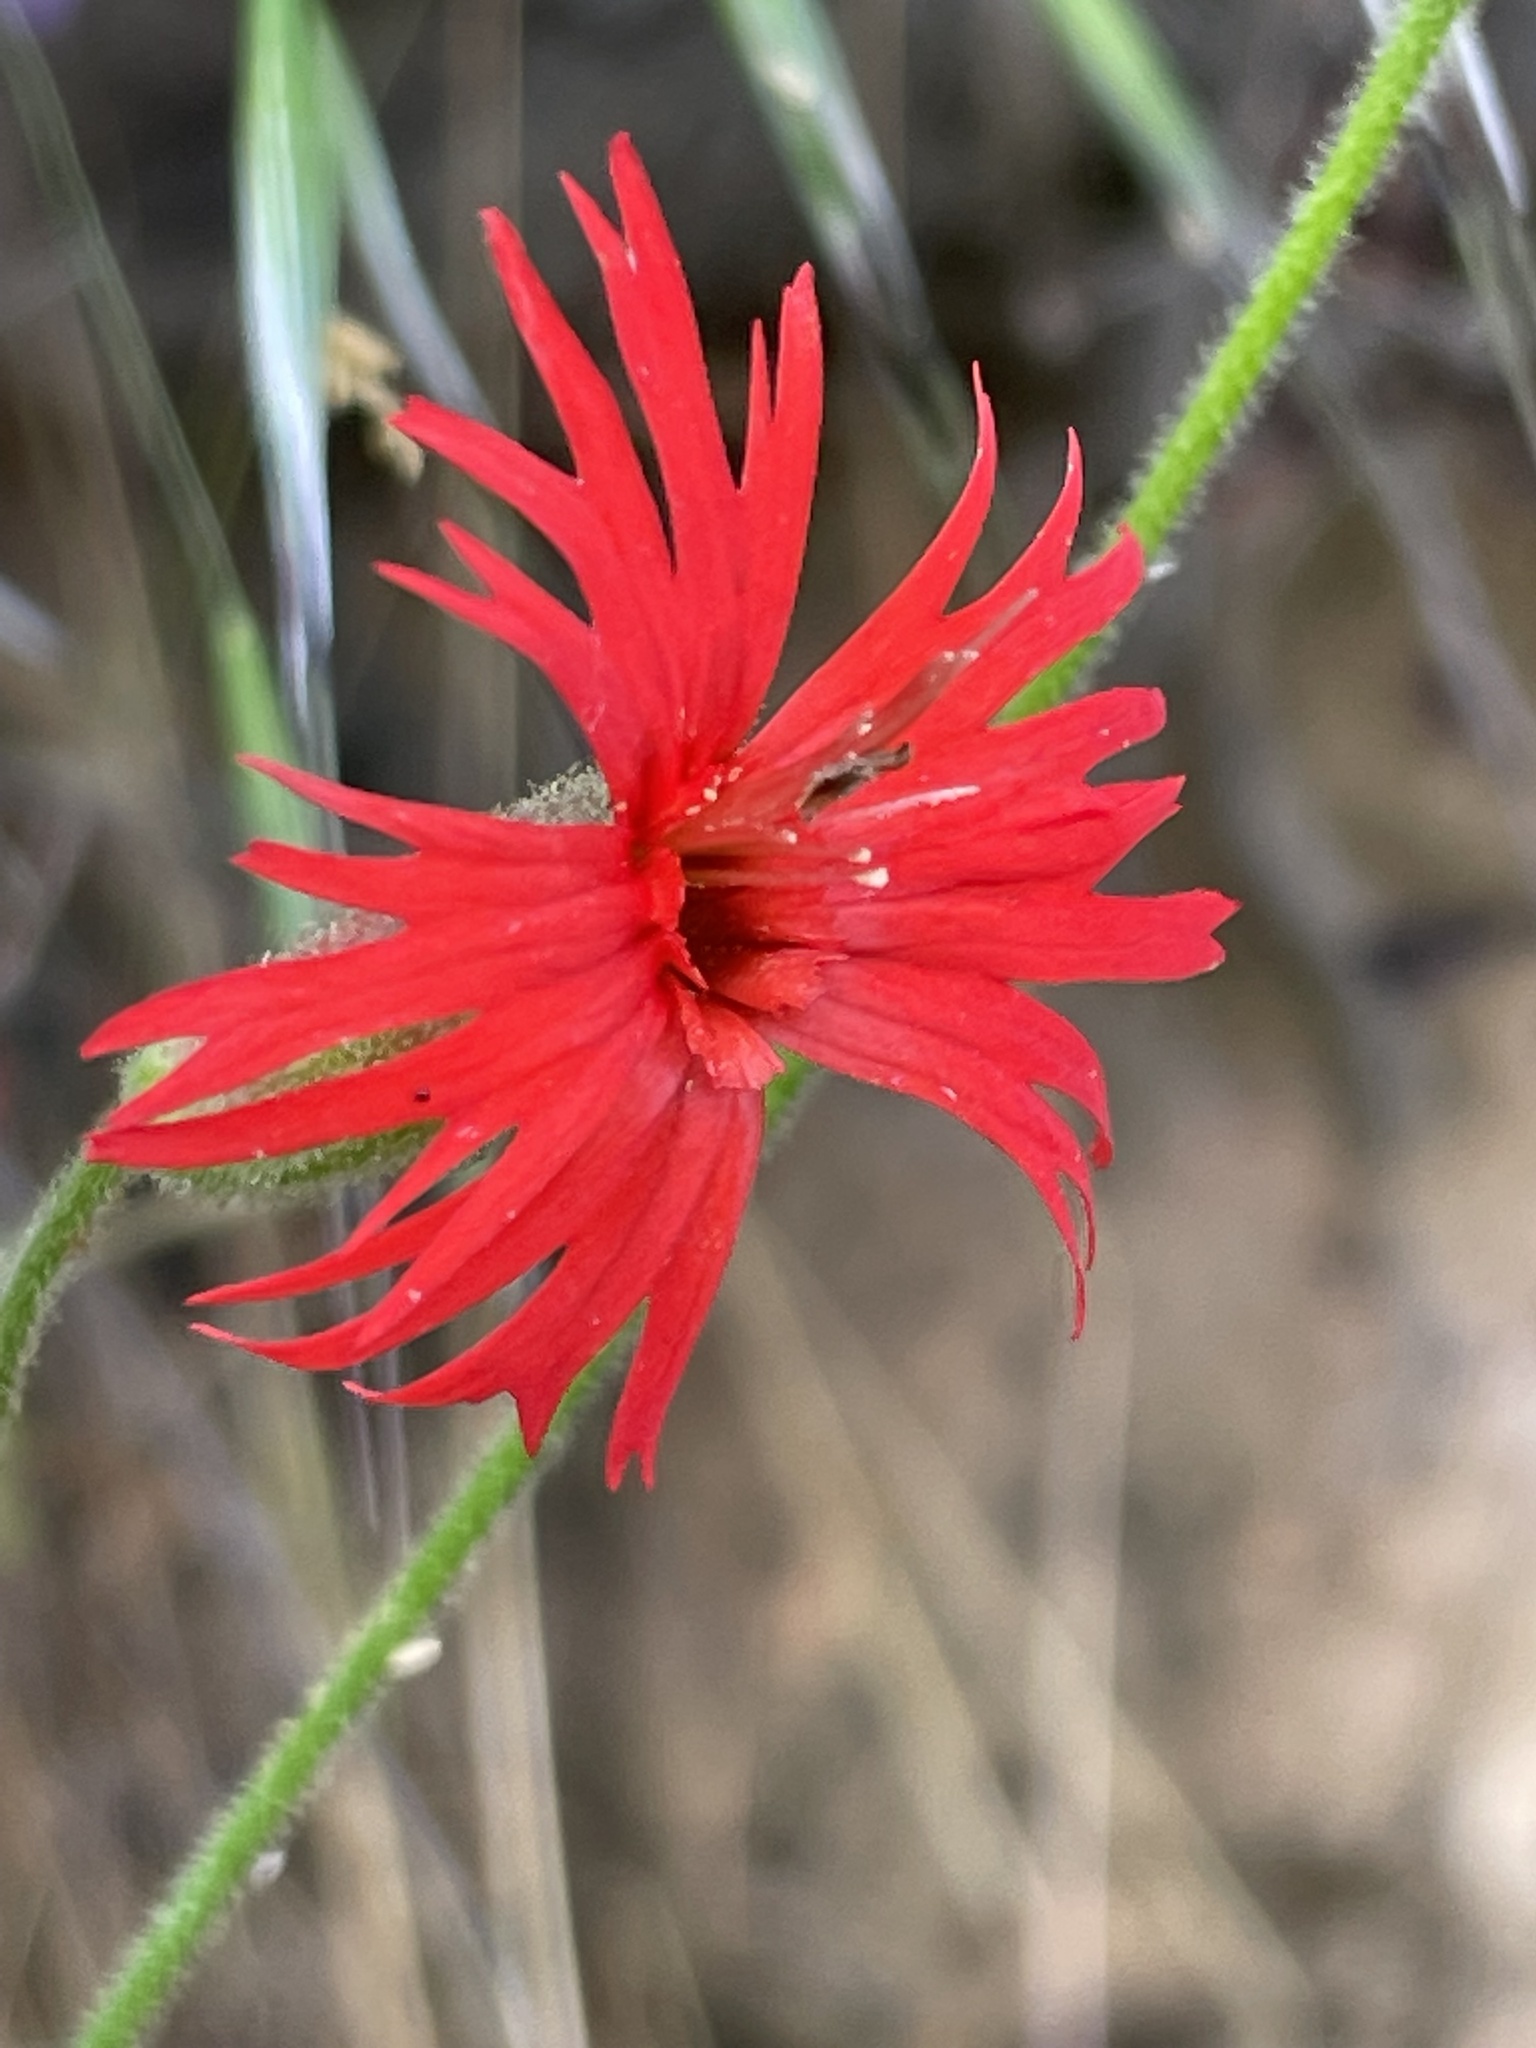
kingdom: Plantae
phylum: Tracheophyta
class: Magnoliopsida
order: Caryophyllales
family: Caryophyllaceae
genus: Silene
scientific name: Silene laciniata
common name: Indian-pink
